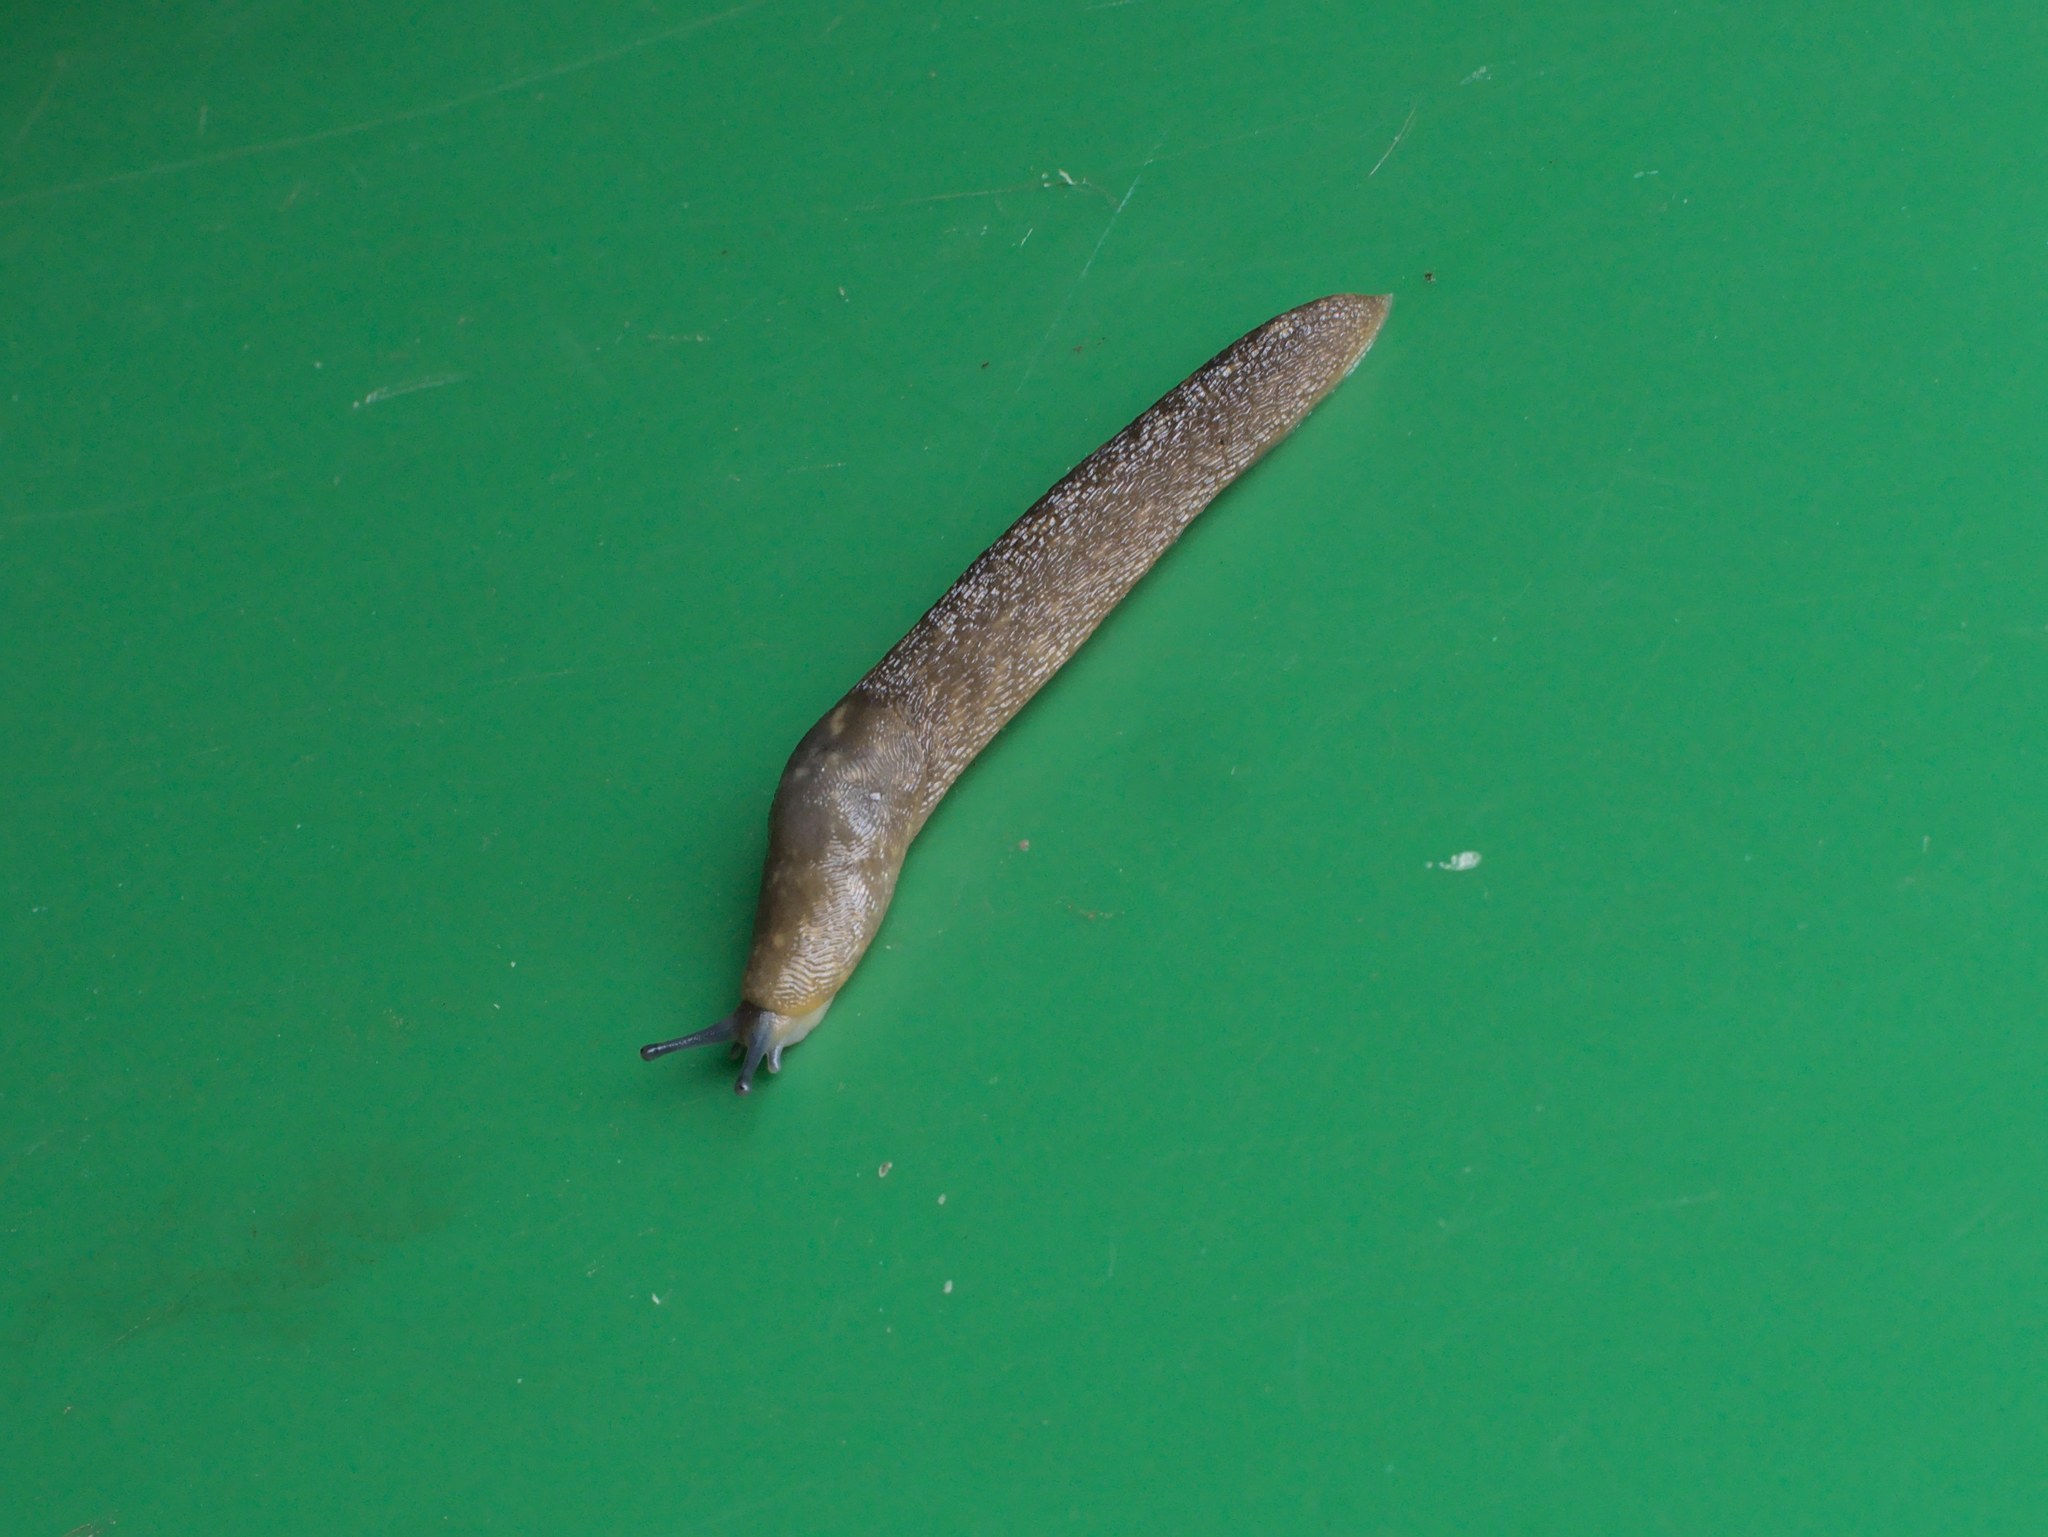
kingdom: Animalia
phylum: Mollusca
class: Gastropoda
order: Stylommatophora
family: Limacidae
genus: Limacus
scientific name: Limacus flavus
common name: Yellow gardenslug
